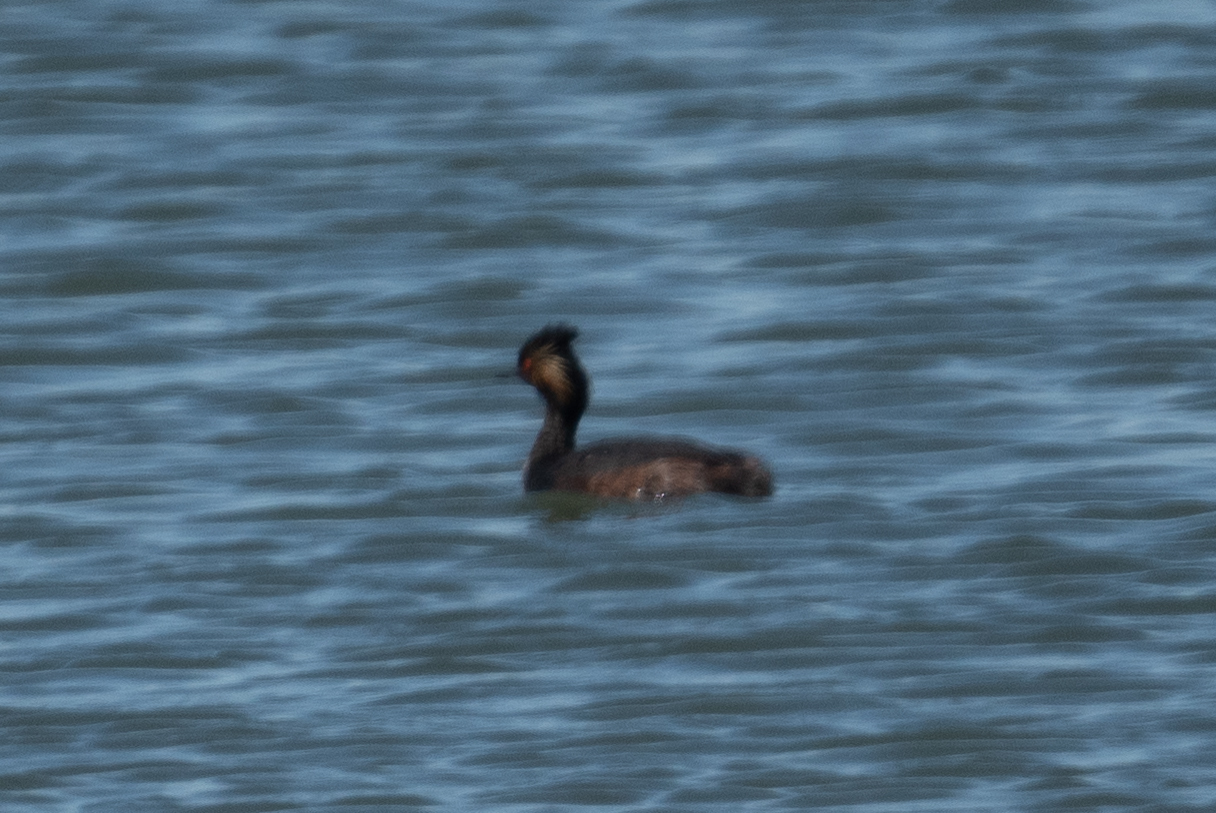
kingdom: Animalia
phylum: Chordata
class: Aves
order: Podicipediformes
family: Podicipedidae
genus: Podiceps
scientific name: Podiceps nigricollis
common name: Black-necked grebe
